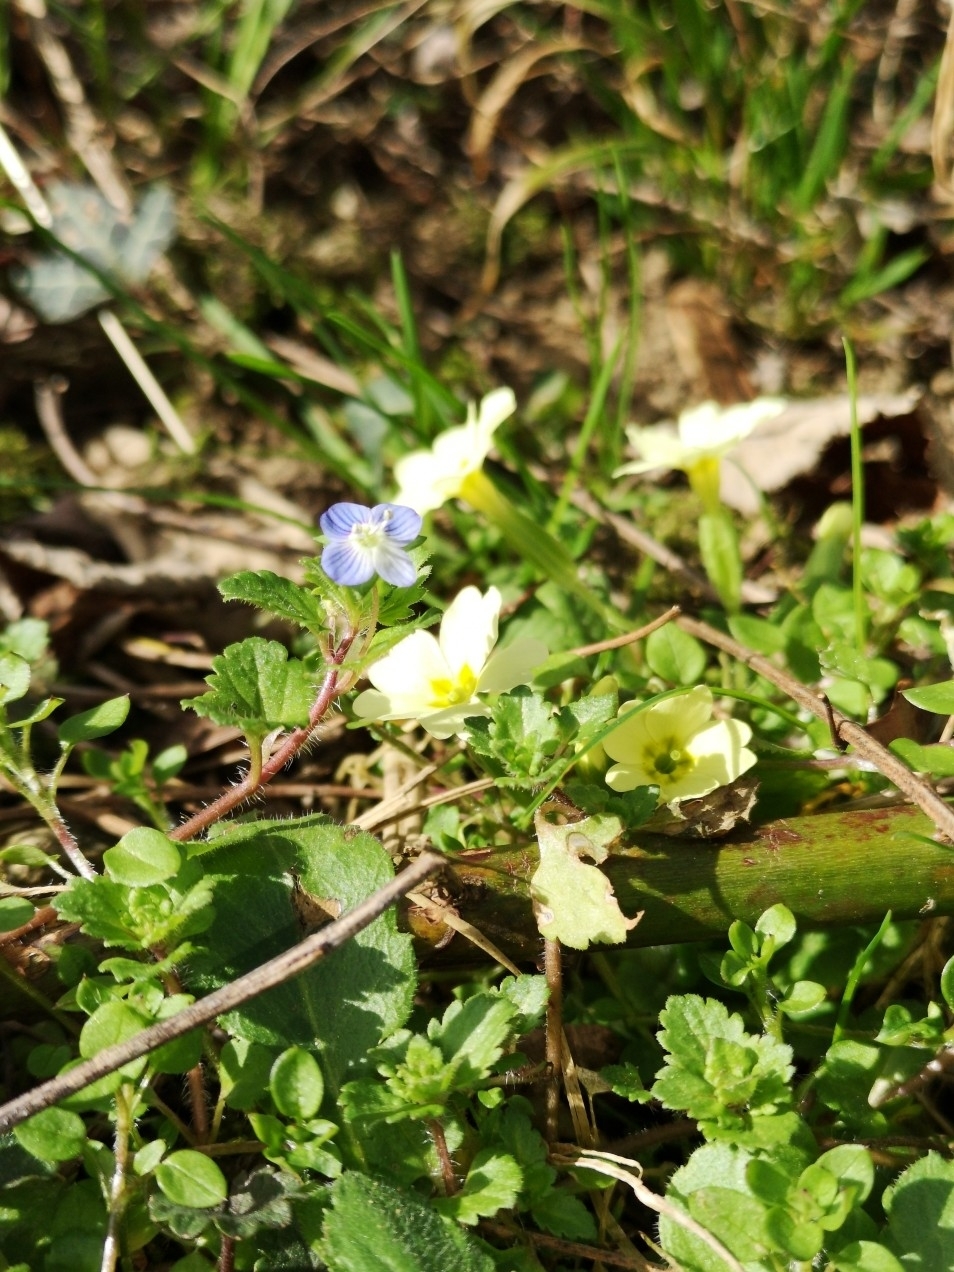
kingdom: Plantae
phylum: Tracheophyta
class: Magnoliopsida
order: Lamiales
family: Plantaginaceae
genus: Veronica
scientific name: Veronica persica
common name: Common field-speedwell
